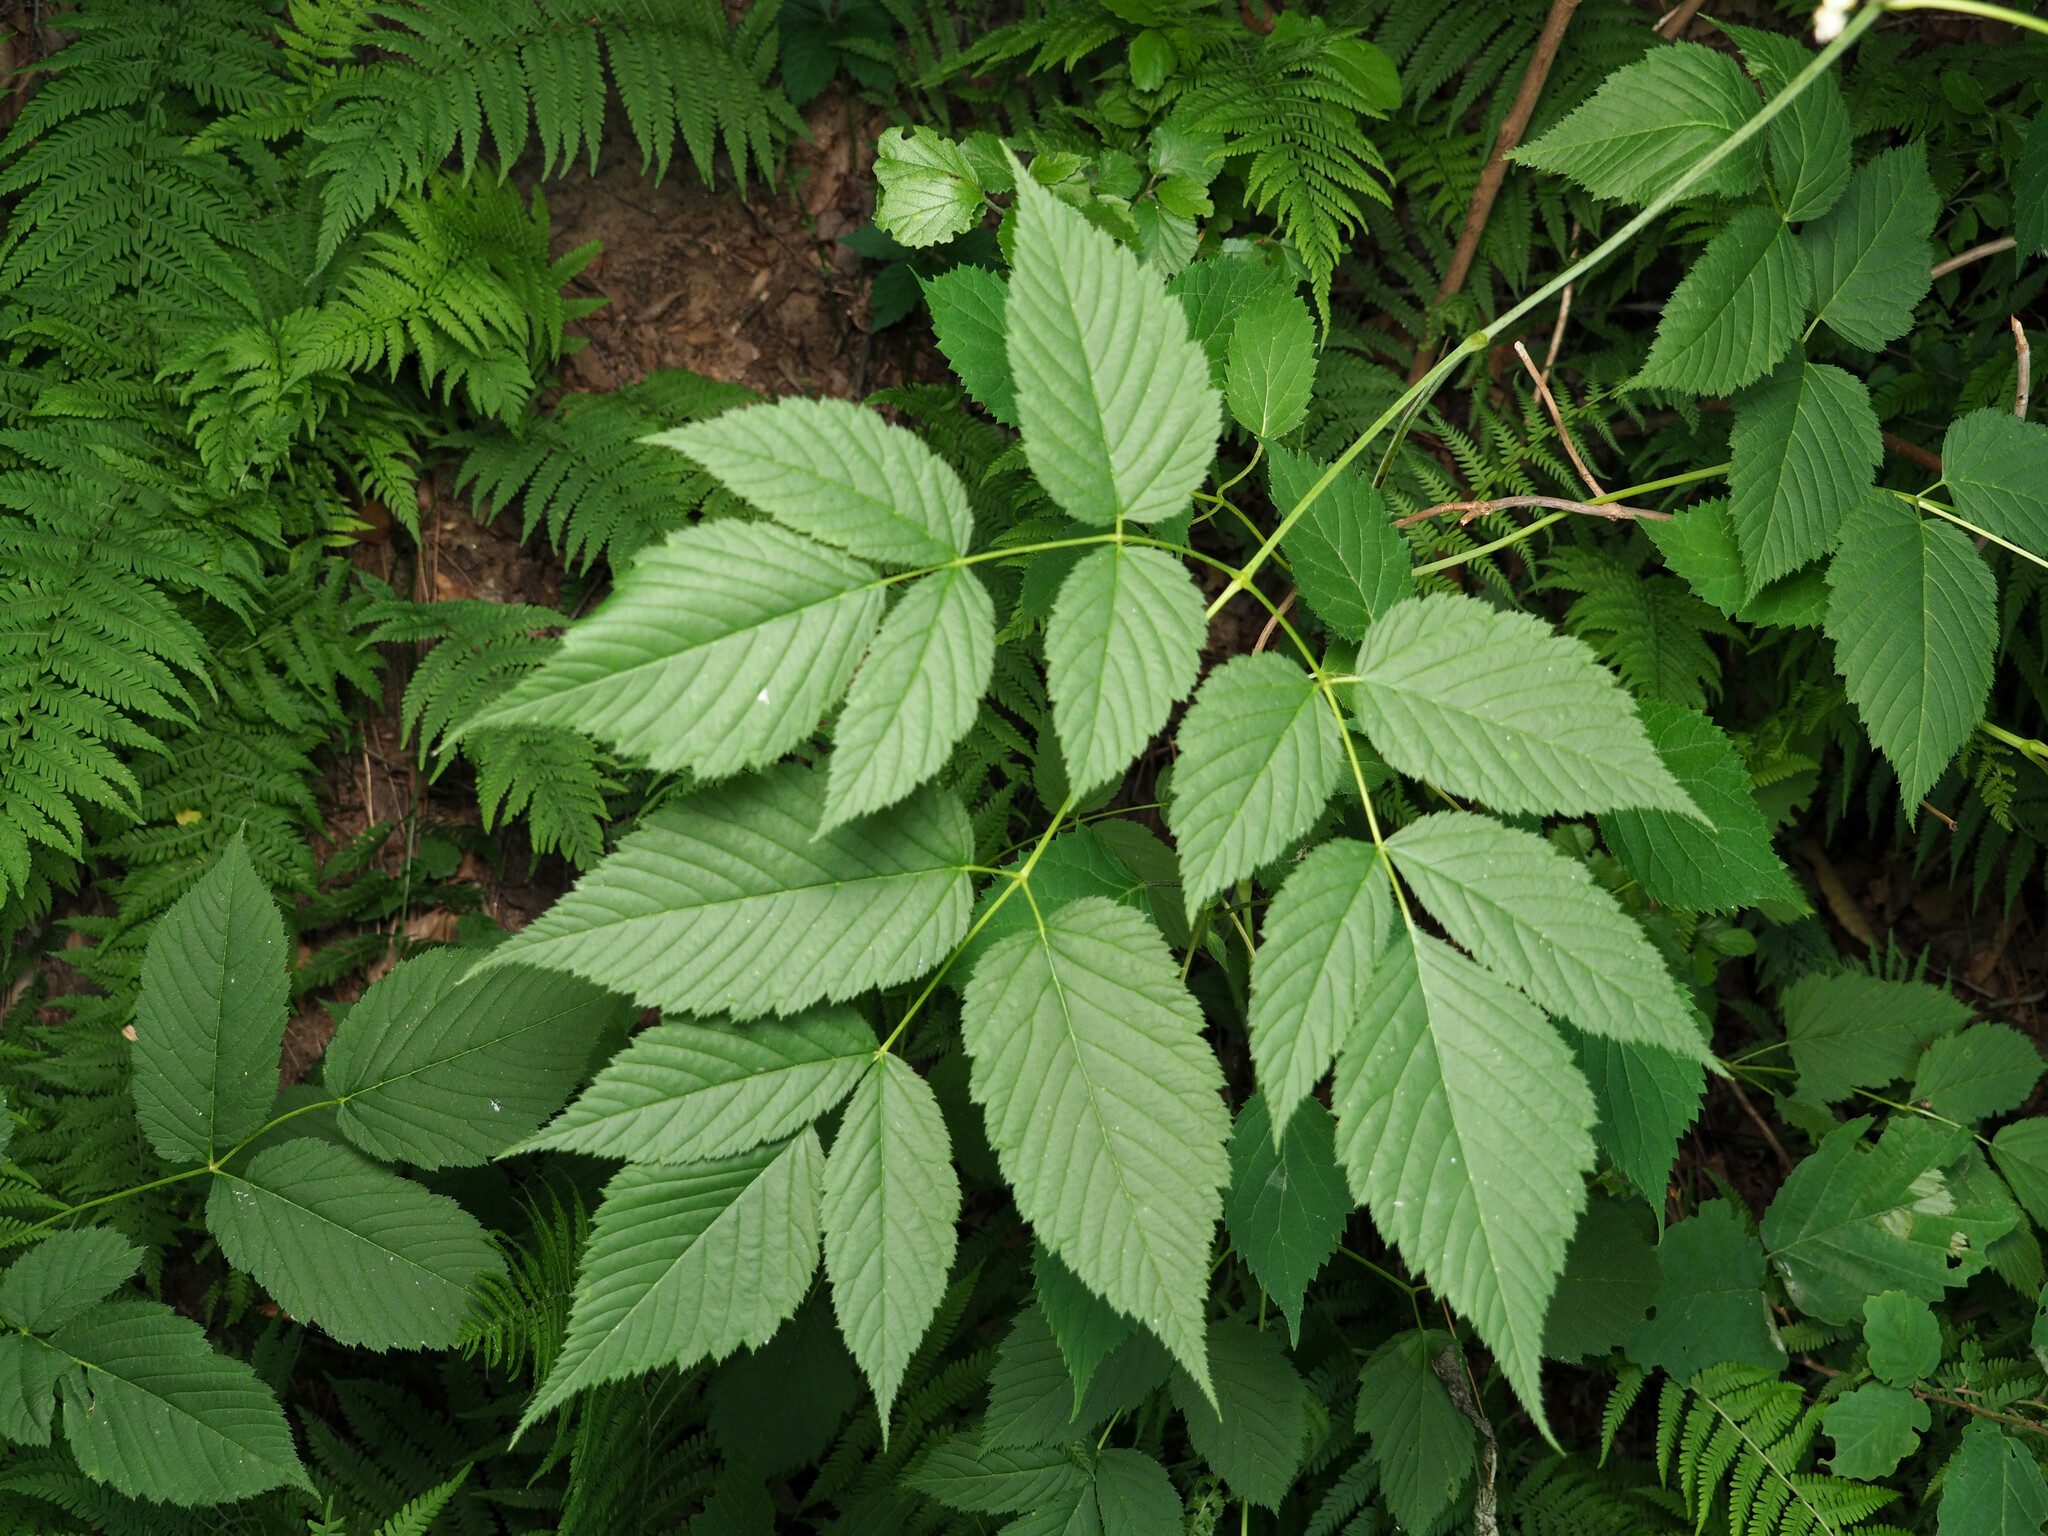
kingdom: Plantae
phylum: Tracheophyta
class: Magnoliopsida
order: Rosales
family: Rosaceae
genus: Aruncus
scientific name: Aruncus dioicus
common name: Buck's-beard
